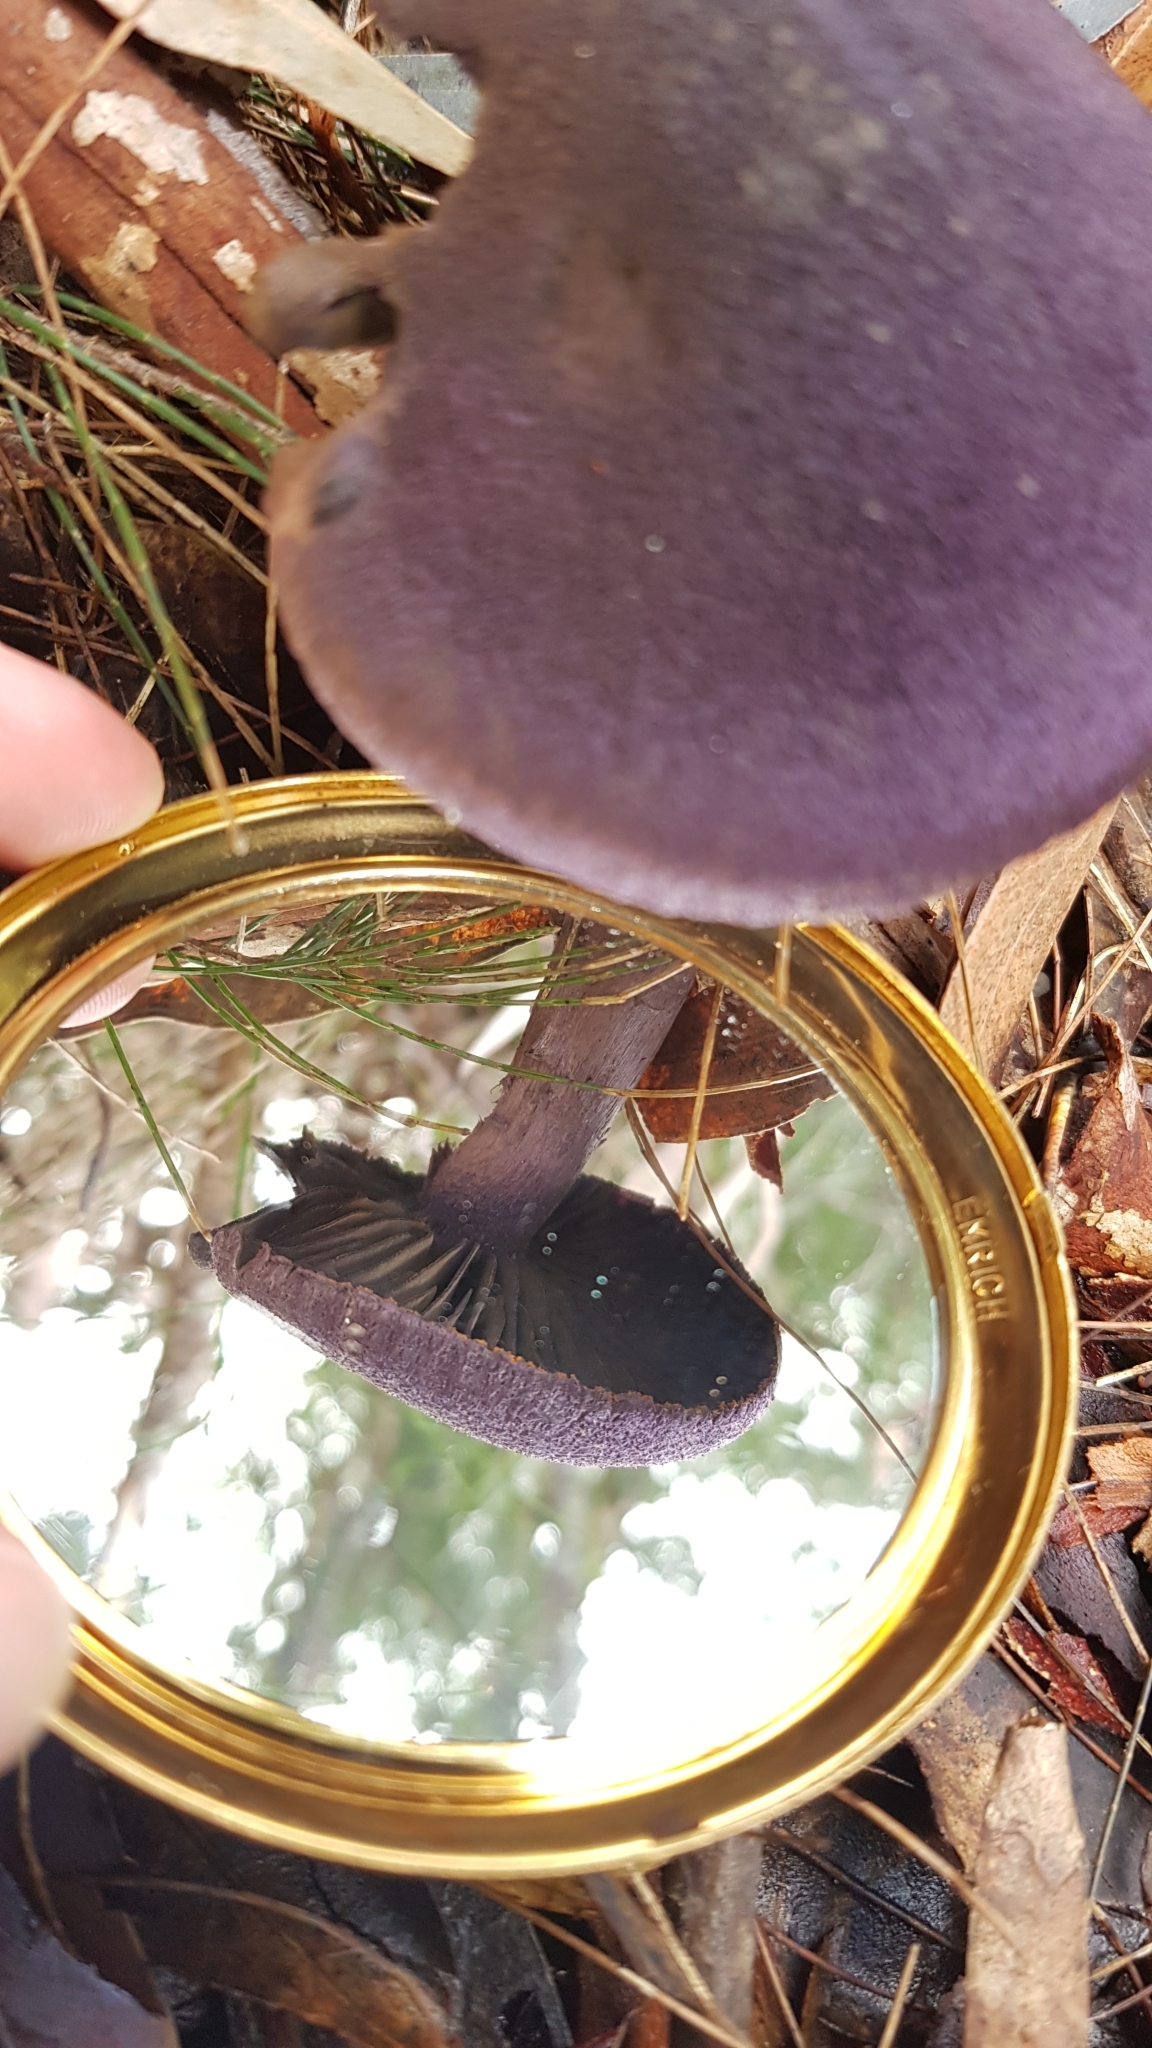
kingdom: Fungi
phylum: Basidiomycota
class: Agaricomycetes
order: Agaricales
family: Cortinariaceae
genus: Cortinarius
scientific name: Cortinarius kioloensis
